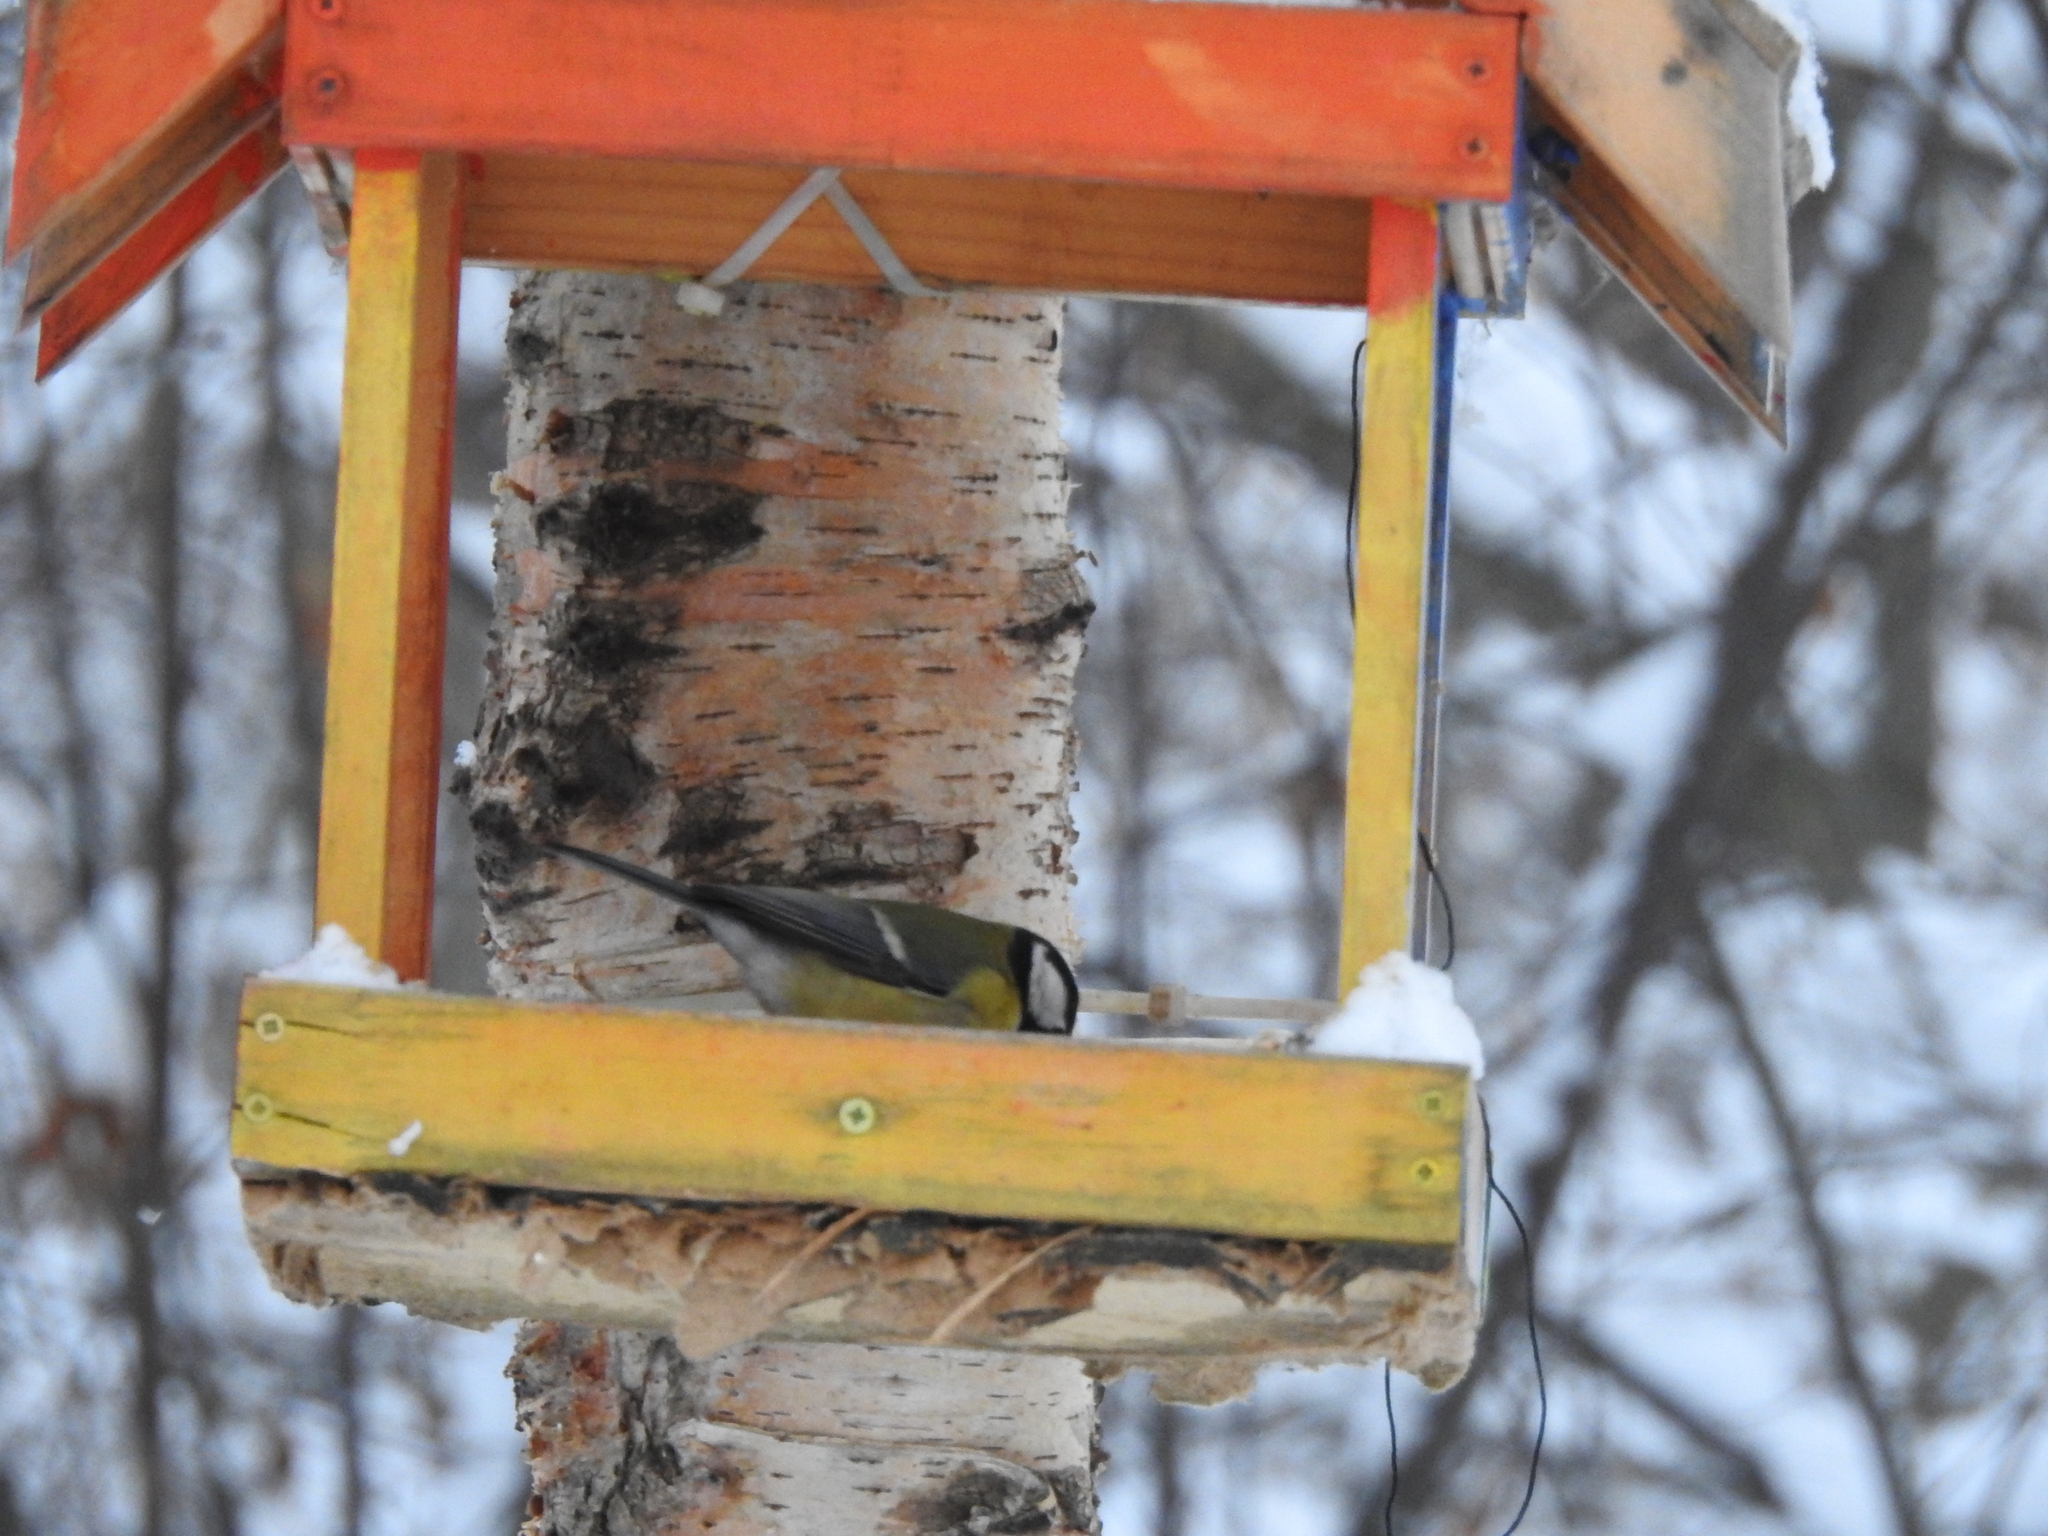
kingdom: Animalia
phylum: Chordata
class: Aves
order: Passeriformes
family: Paridae
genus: Parus
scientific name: Parus major
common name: Great tit
